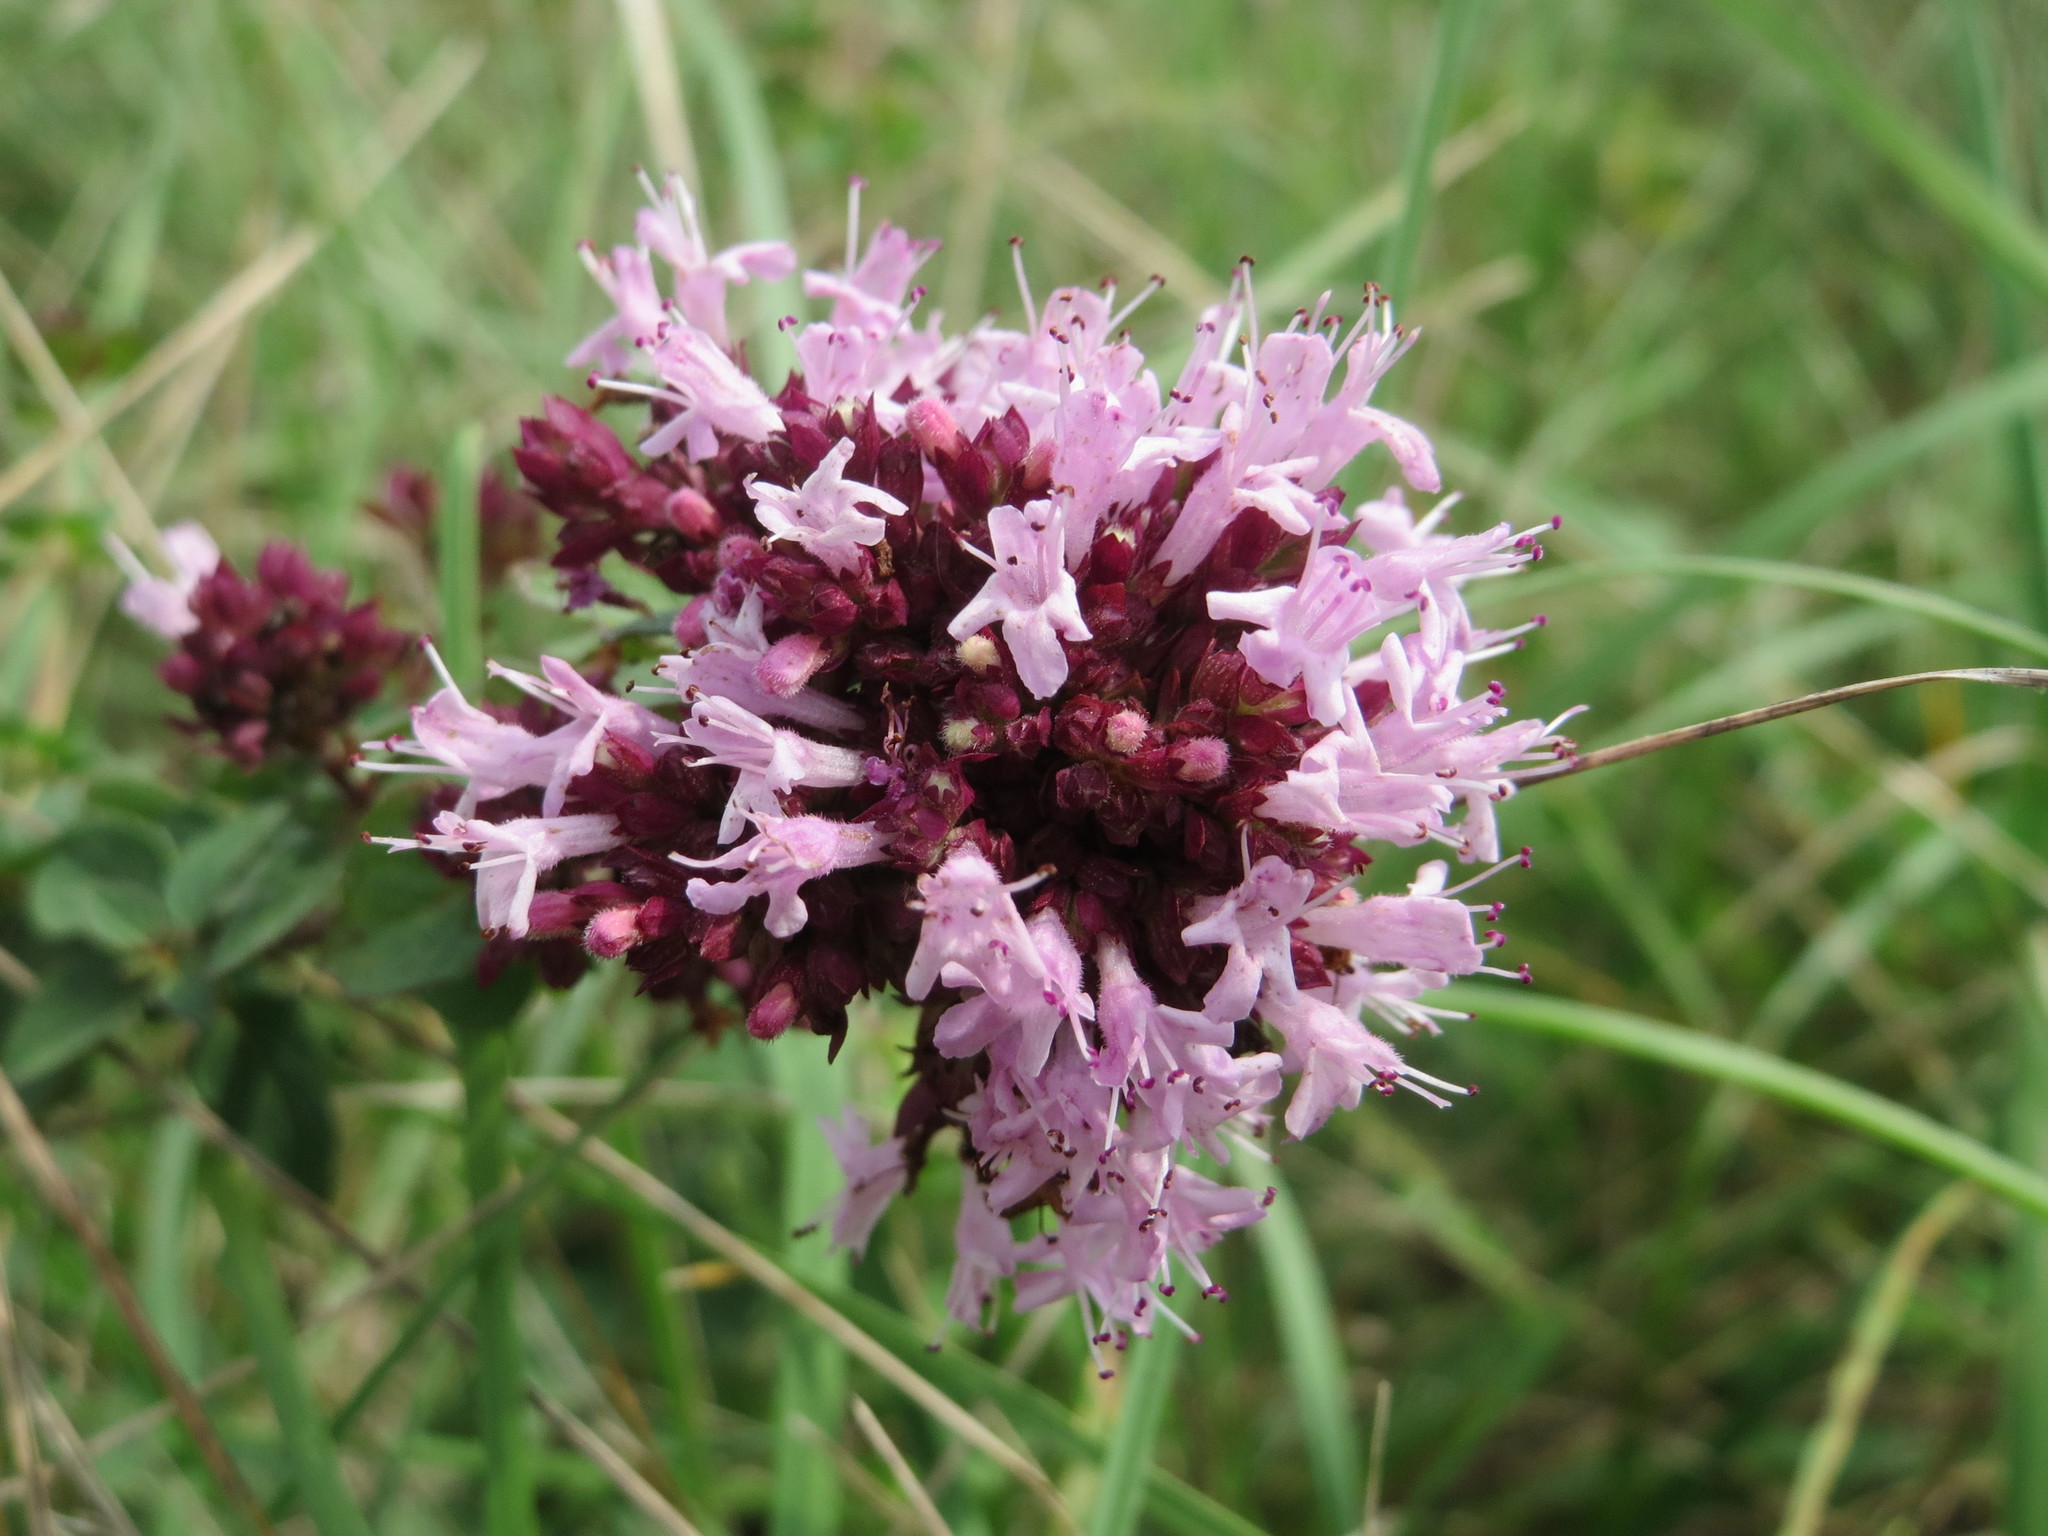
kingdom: Plantae
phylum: Tracheophyta
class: Magnoliopsida
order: Lamiales
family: Lamiaceae
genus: Origanum
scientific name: Origanum vulgare
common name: Wild marjoram
